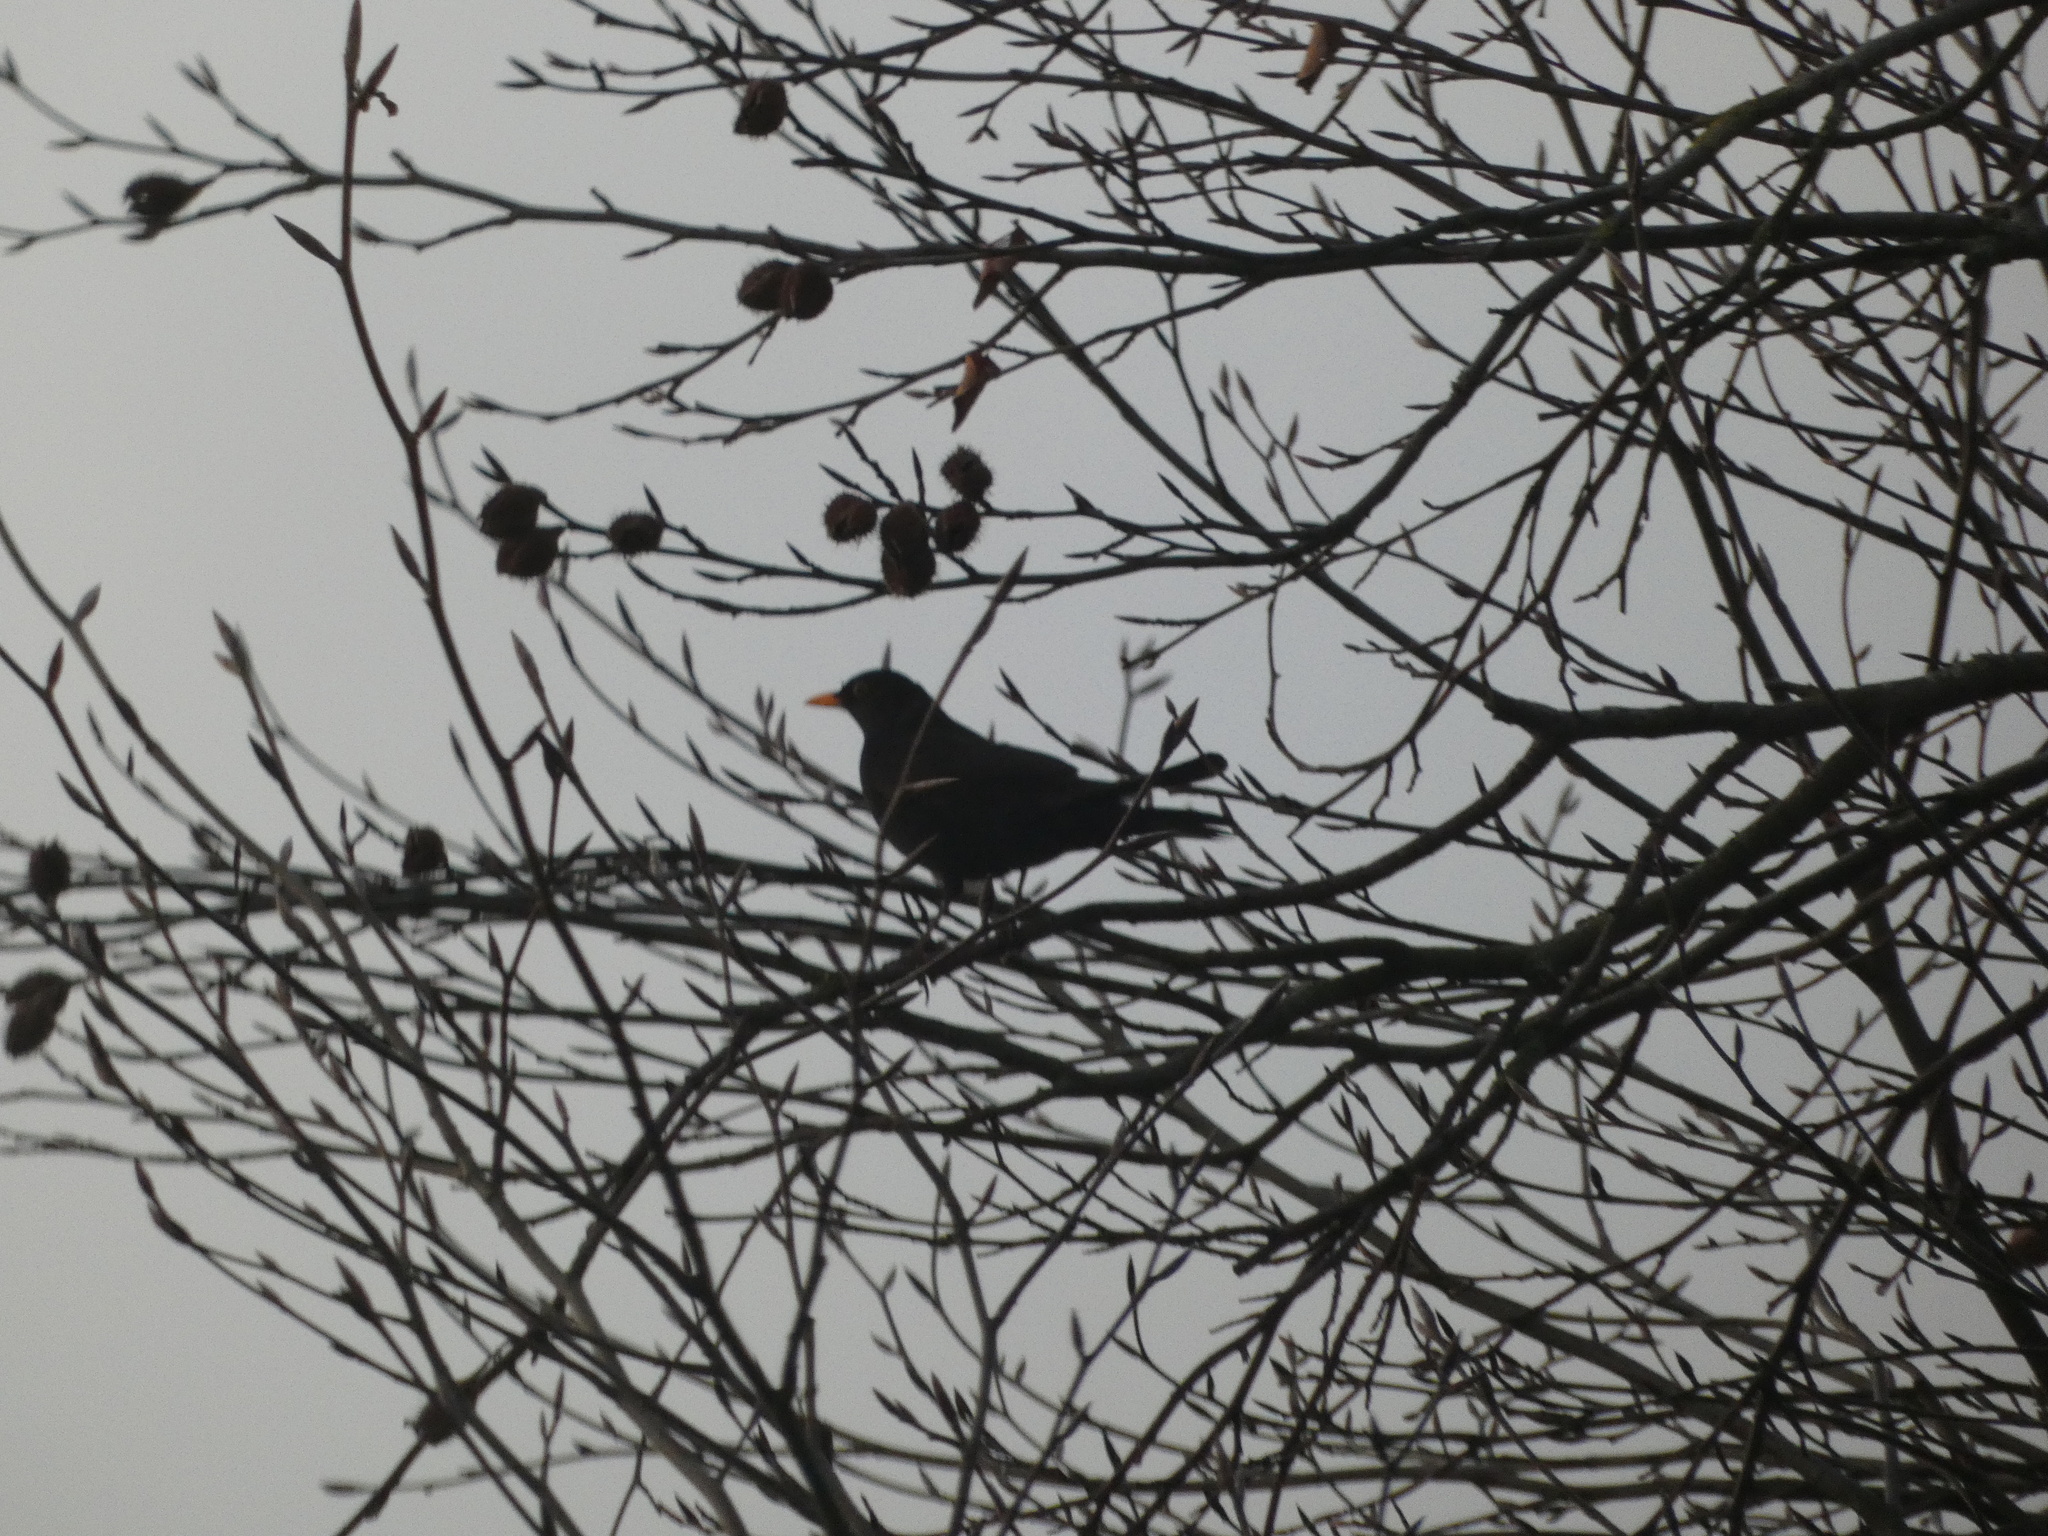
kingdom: Animalia
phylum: Chordata
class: Aves
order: Passeriformes
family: Turdidae
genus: Turdus
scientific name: Turdus merula
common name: Common blackbird
